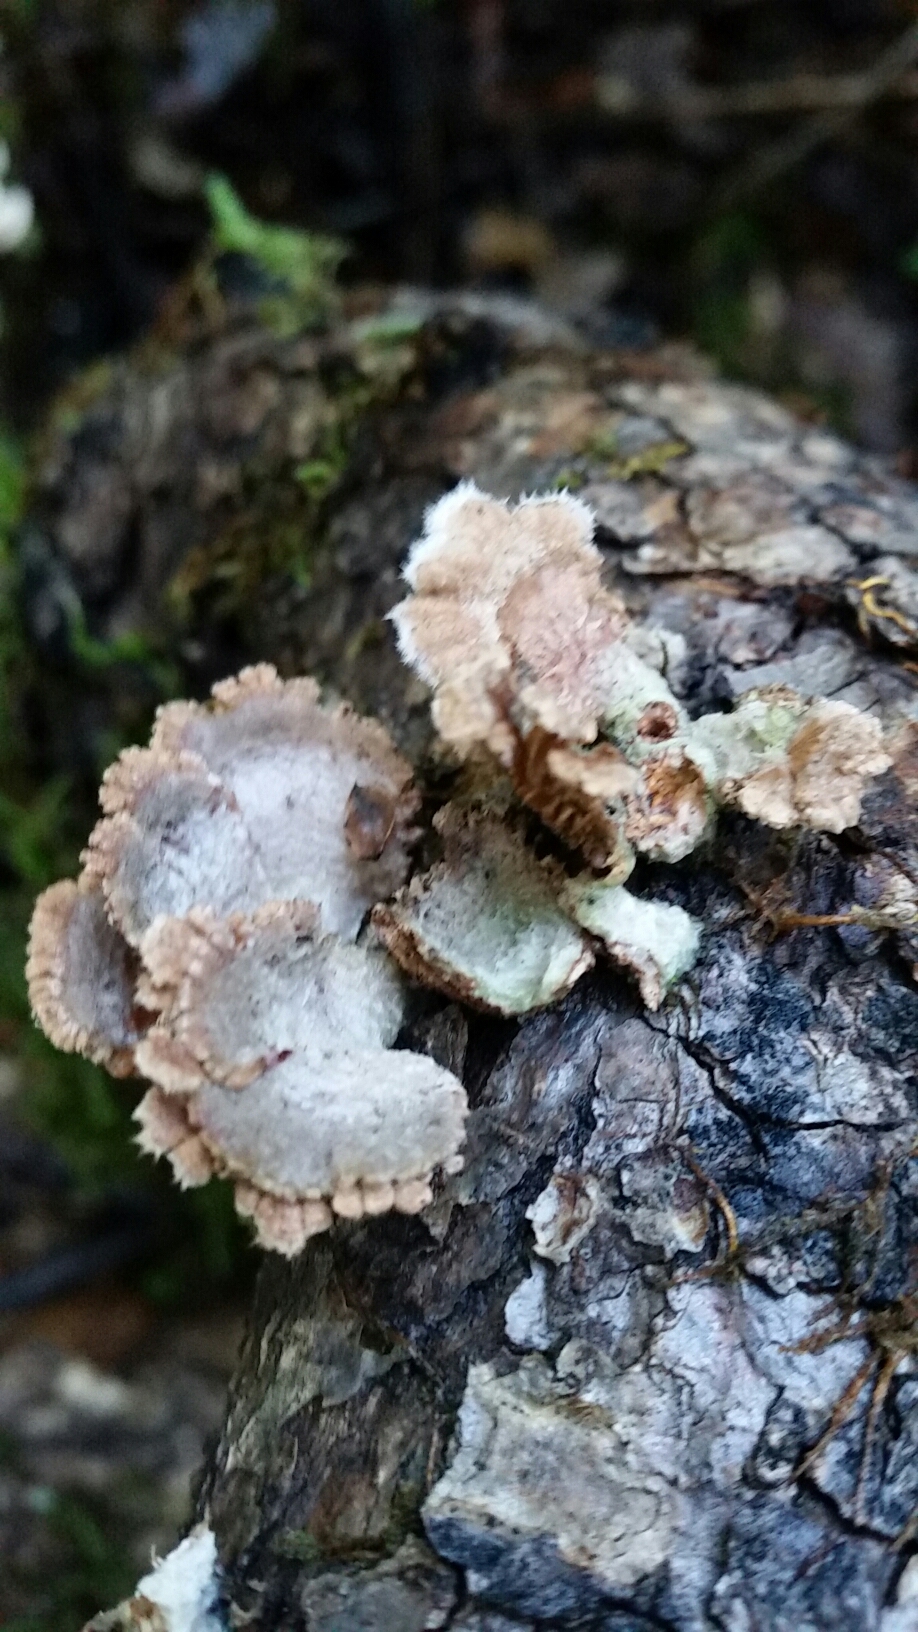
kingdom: Fungi
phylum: Basidiomycota
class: Agaricomycetes
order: Agaricales
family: Schizophyllaceae
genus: Schizophyllum
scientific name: Schizophyllum commune
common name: Common porecrust
